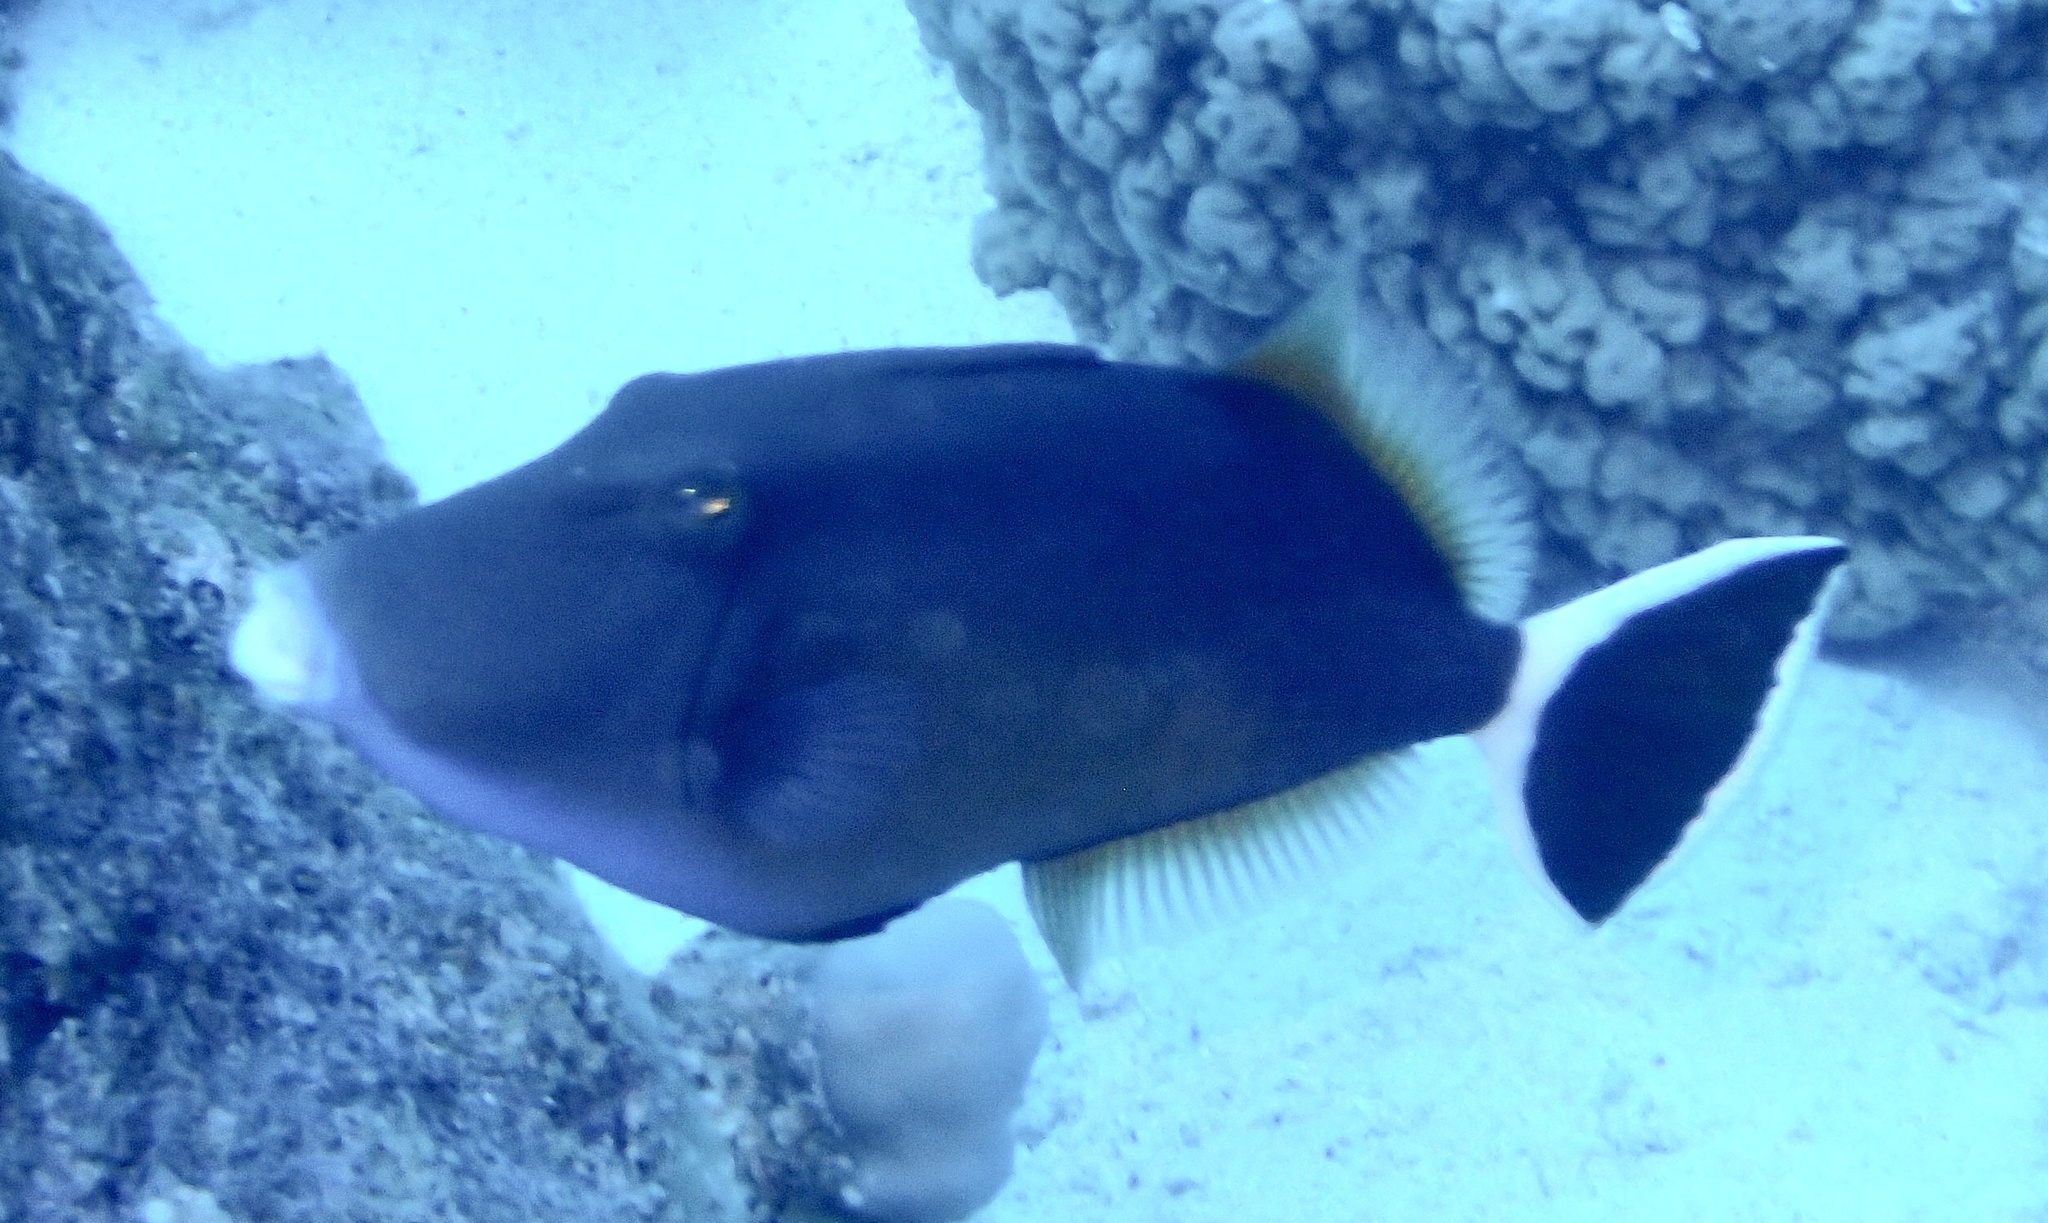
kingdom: Animalia
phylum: Chordata
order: Tetraodontiformes
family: Balistidae
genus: Sufflamen
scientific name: Sufflamen albicaudatum
